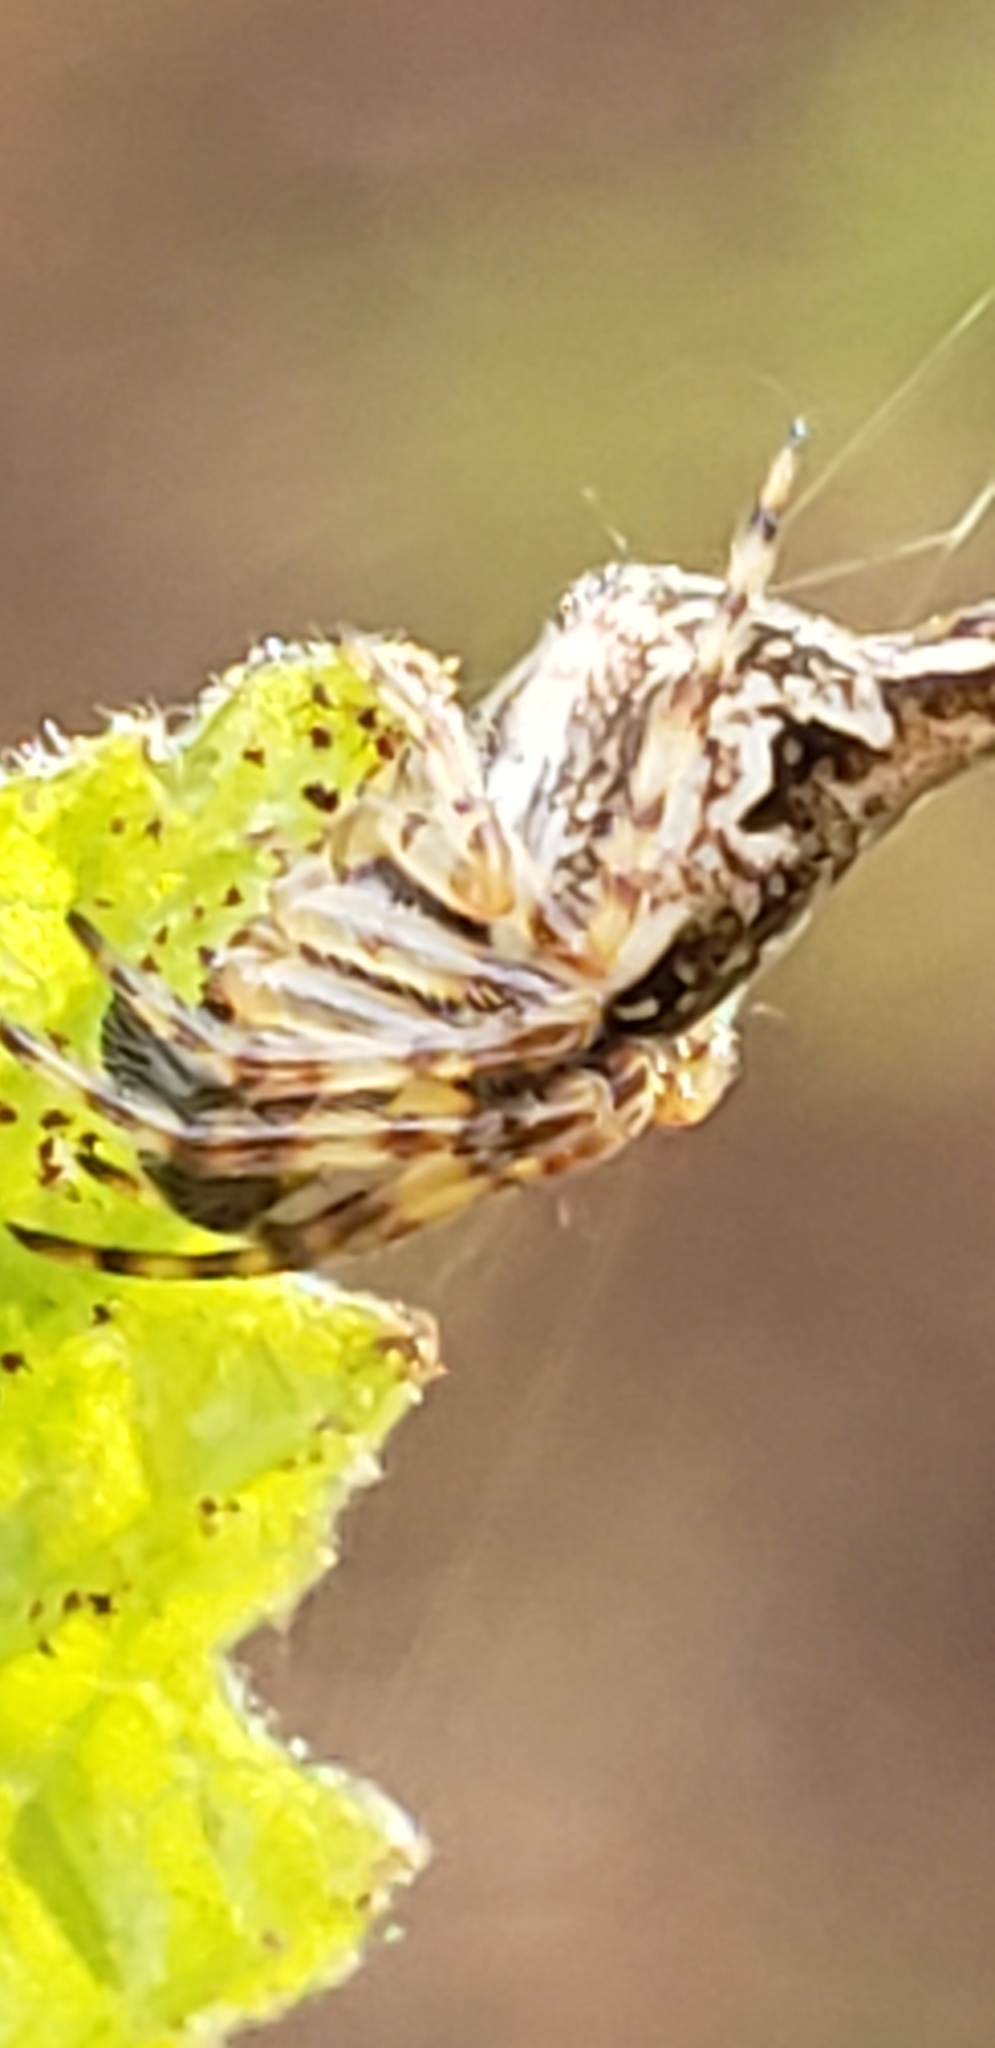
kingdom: Animalia
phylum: Arthropoda
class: Arachnida
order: Araneae
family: Araneidae
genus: Cyclosa
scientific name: Cyclosa conica
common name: Conical trashline orbweaver
